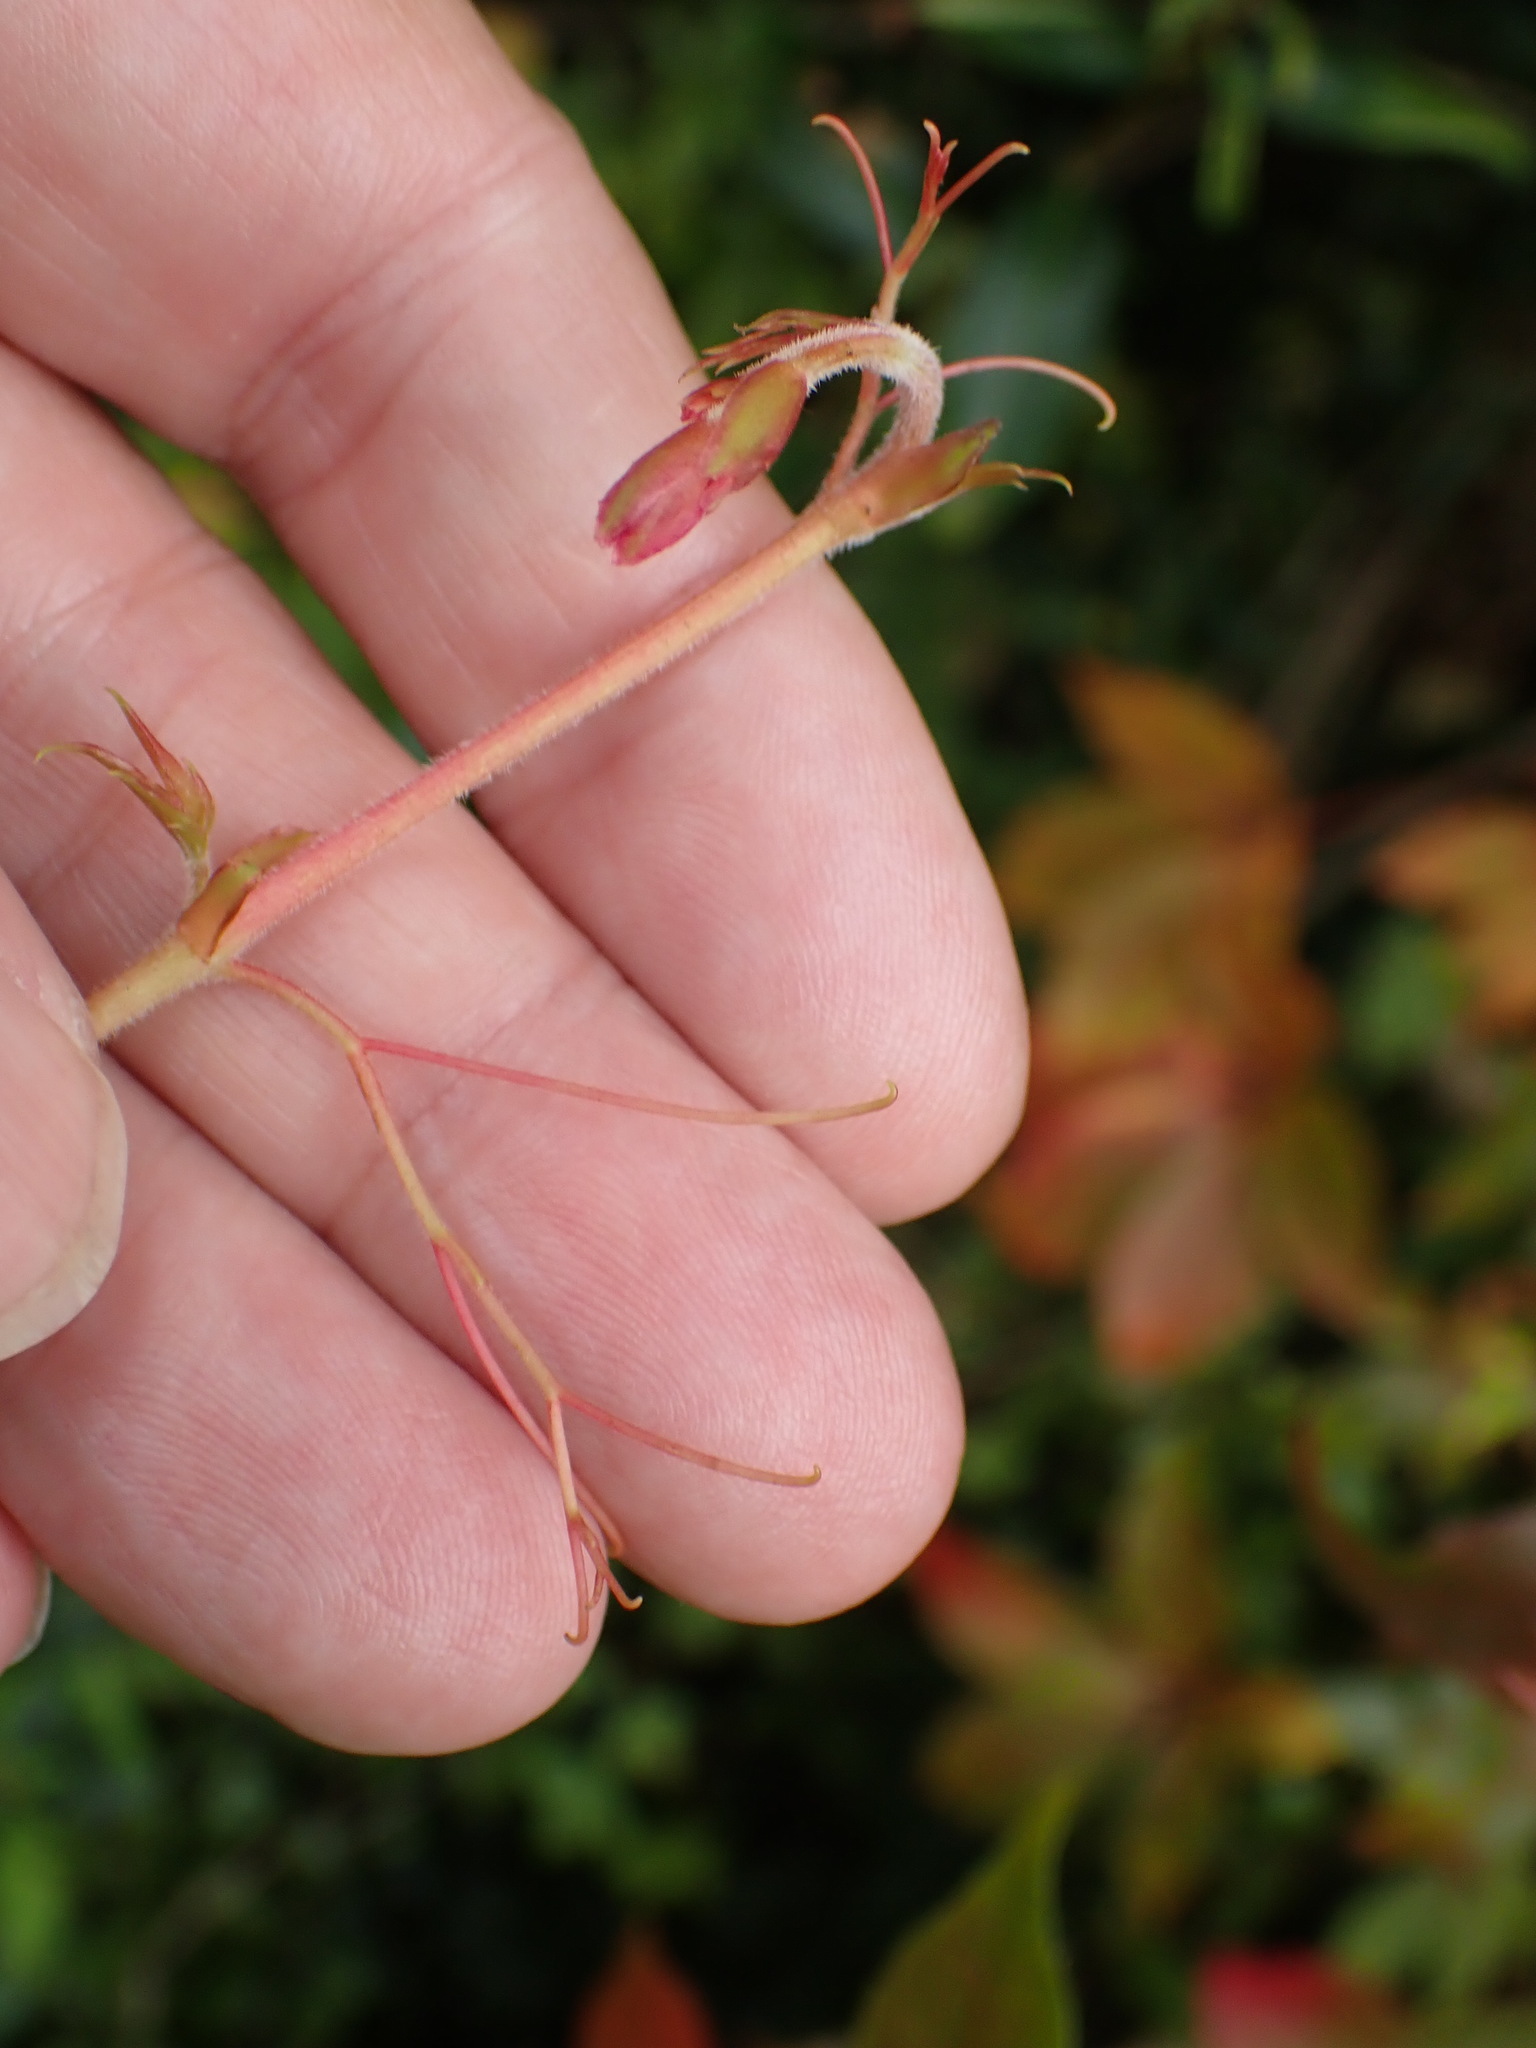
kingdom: Plantae
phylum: Tracheophyta
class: Magnoliopsida
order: Vitales
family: Vitaceae
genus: Parthenocissus
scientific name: Parthenocissus inserta
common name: False virginia-creeper
